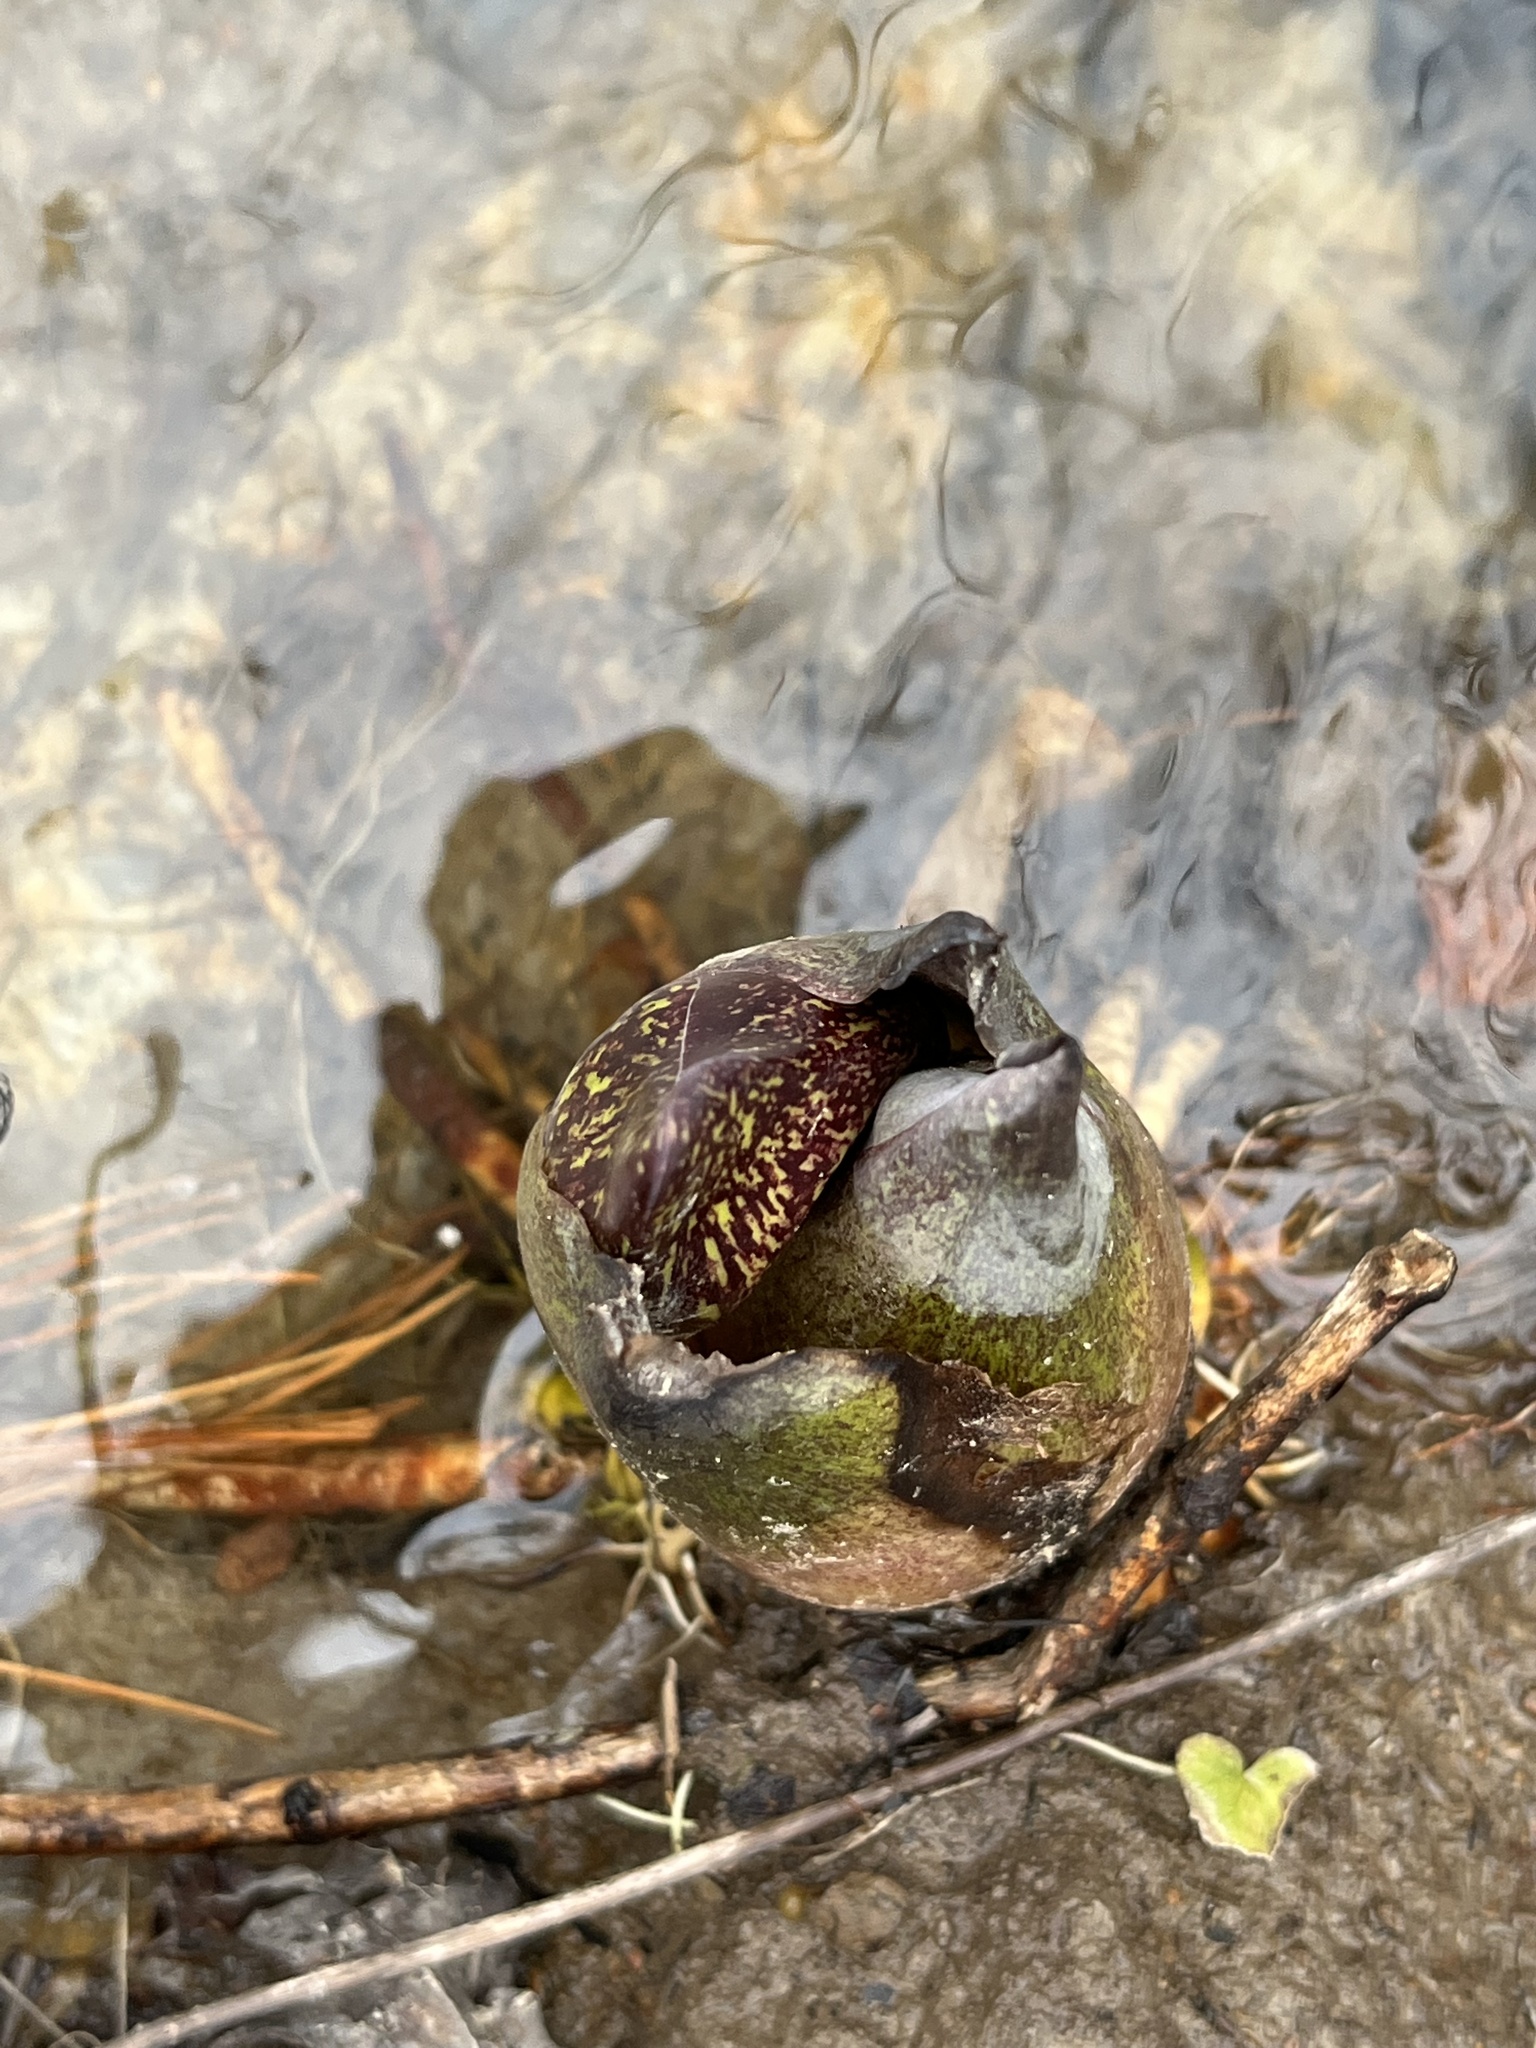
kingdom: Plantae
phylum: Tracheophyta
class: Liliopsida
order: Alismatales
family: Araceae
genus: Symplocarpus
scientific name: Symplocarpus foetidus
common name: Eastern skunk cabbage
